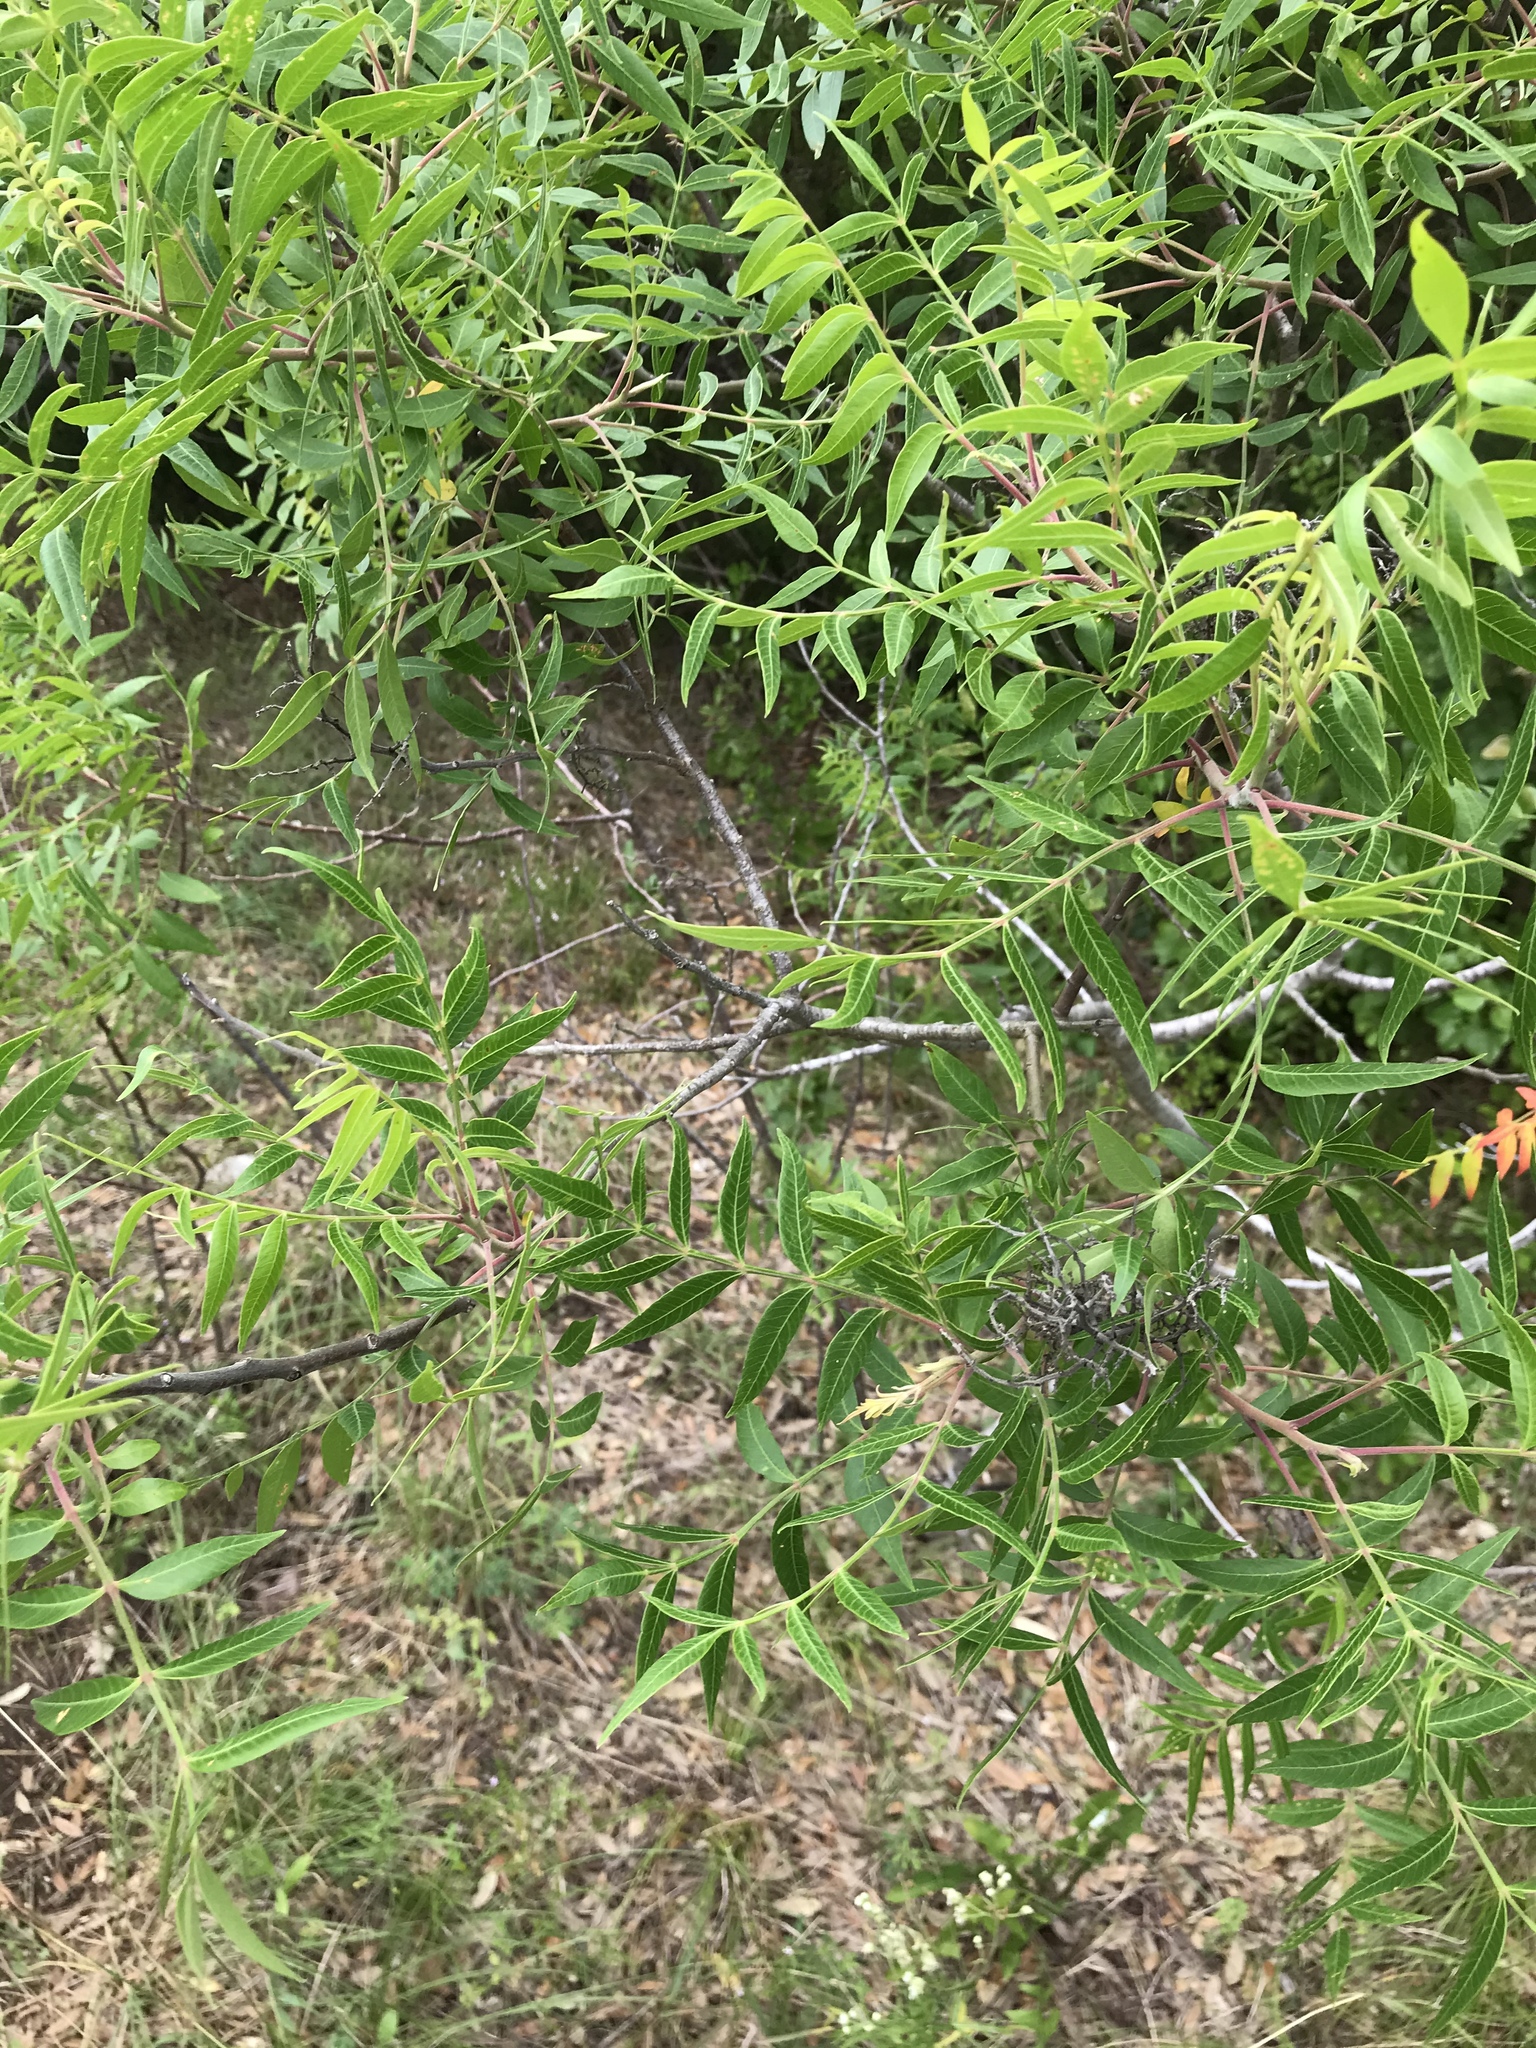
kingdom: Plantae
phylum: Tracheophyta
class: Magnoliopsida
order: Sapindales
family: Anacardiaceae
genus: Rhus
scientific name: Rhus lanceolata
